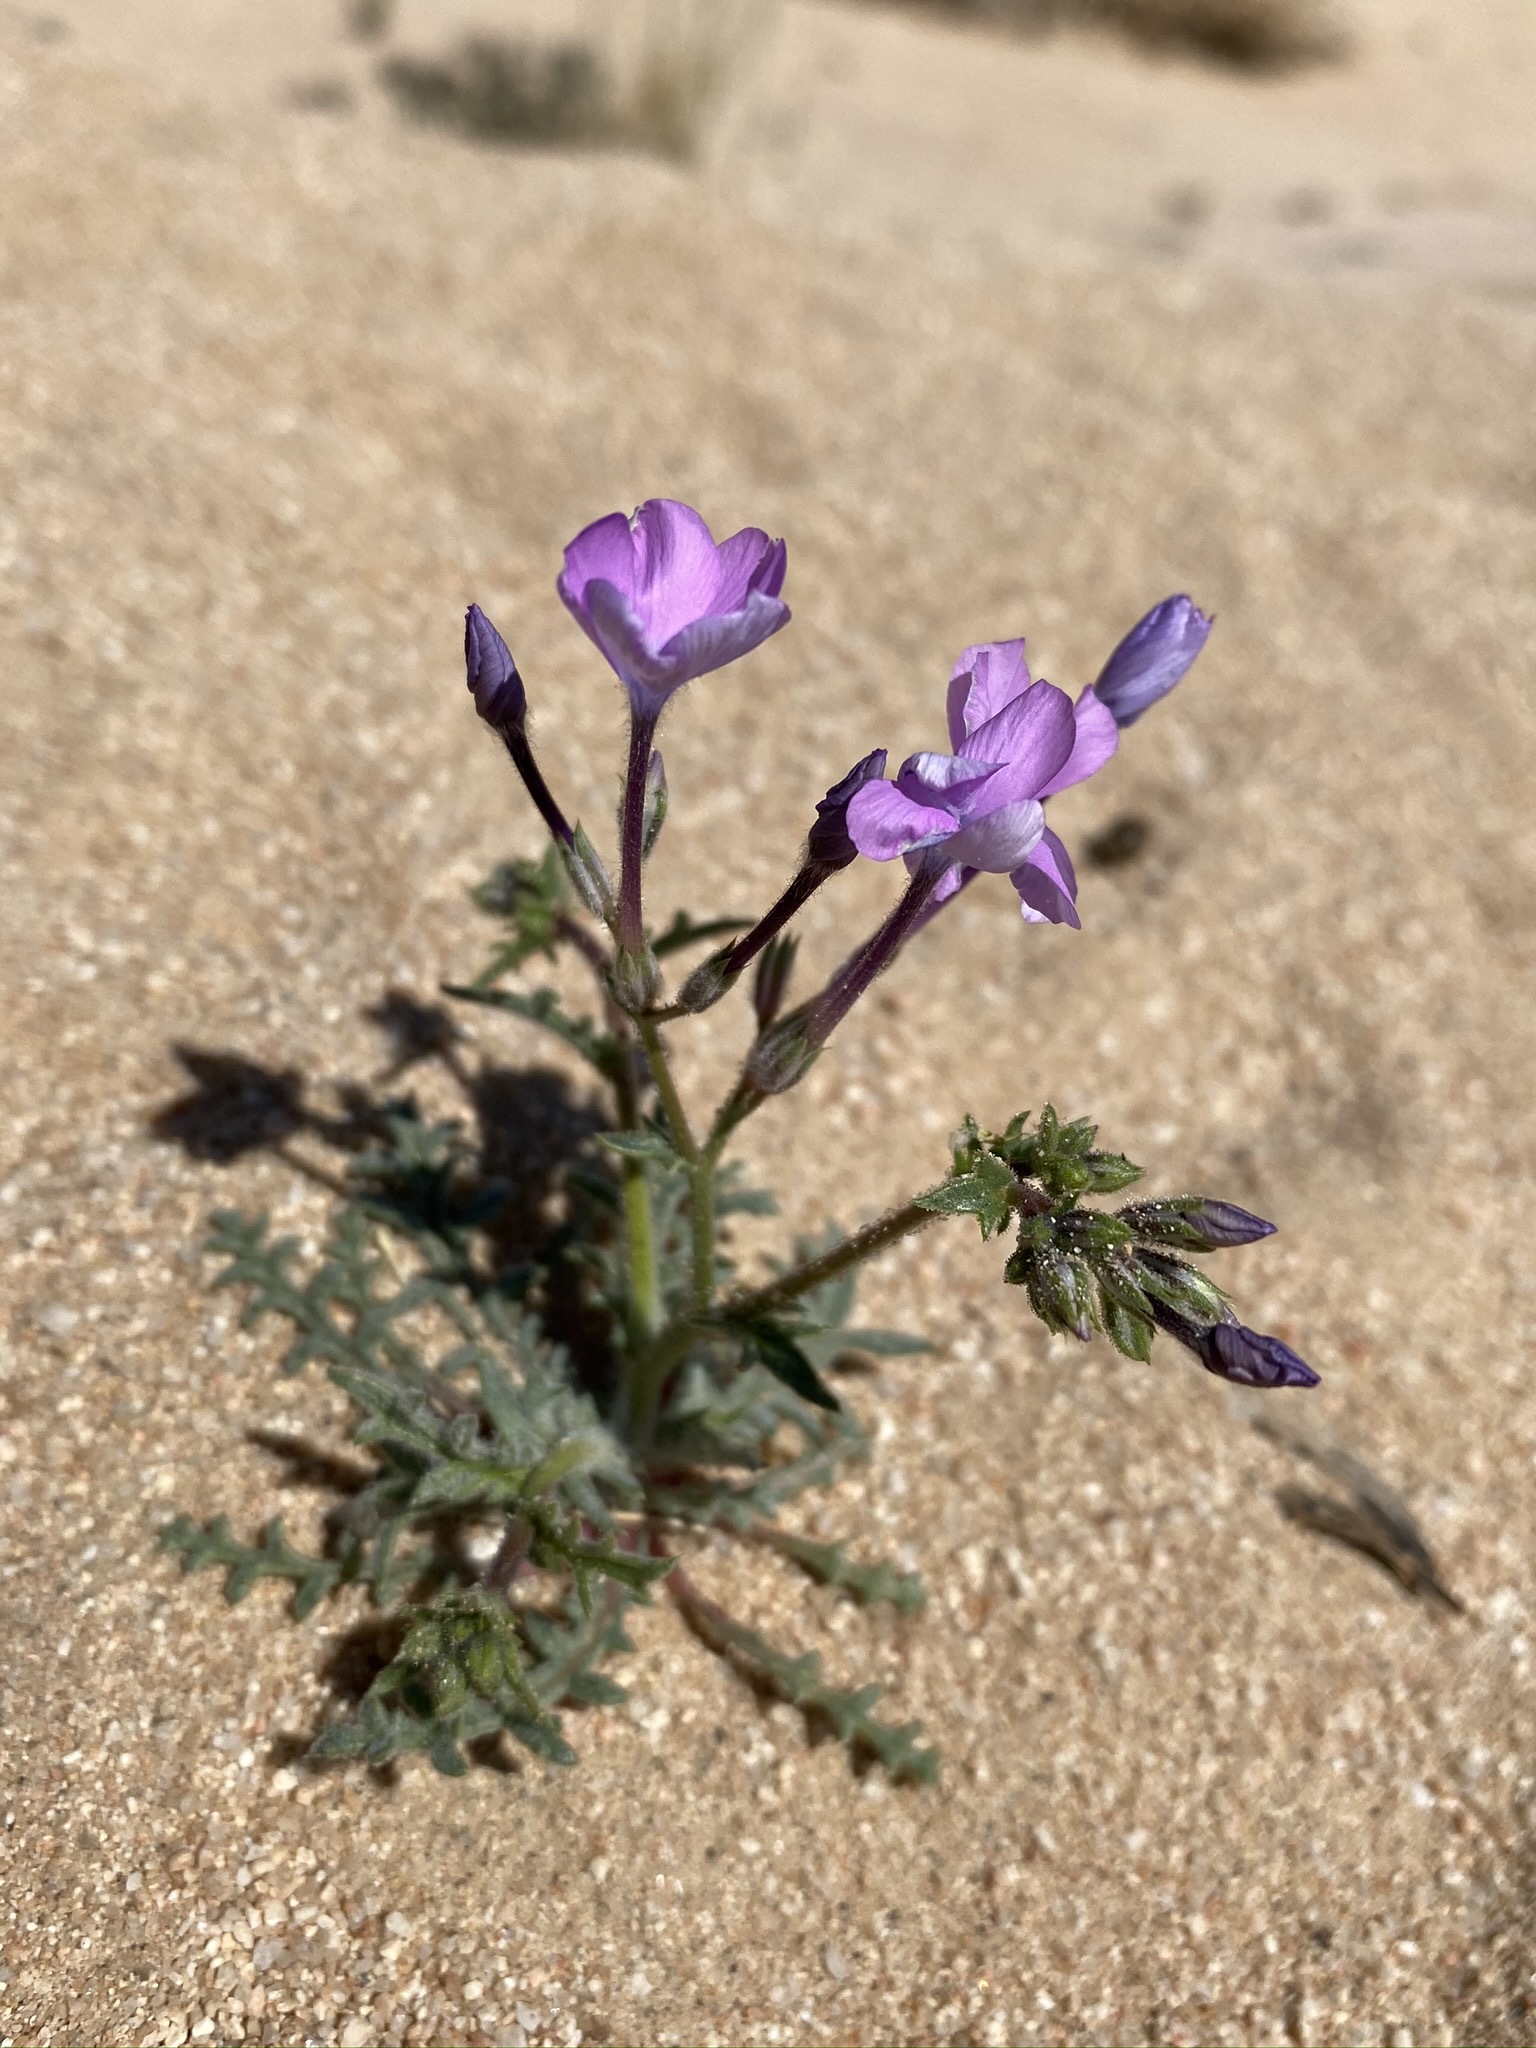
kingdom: Plantae
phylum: Tracheophyta
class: Magnoliopsida
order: Ericales
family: Polemoniaceae
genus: Gilia
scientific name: Gilia cana
